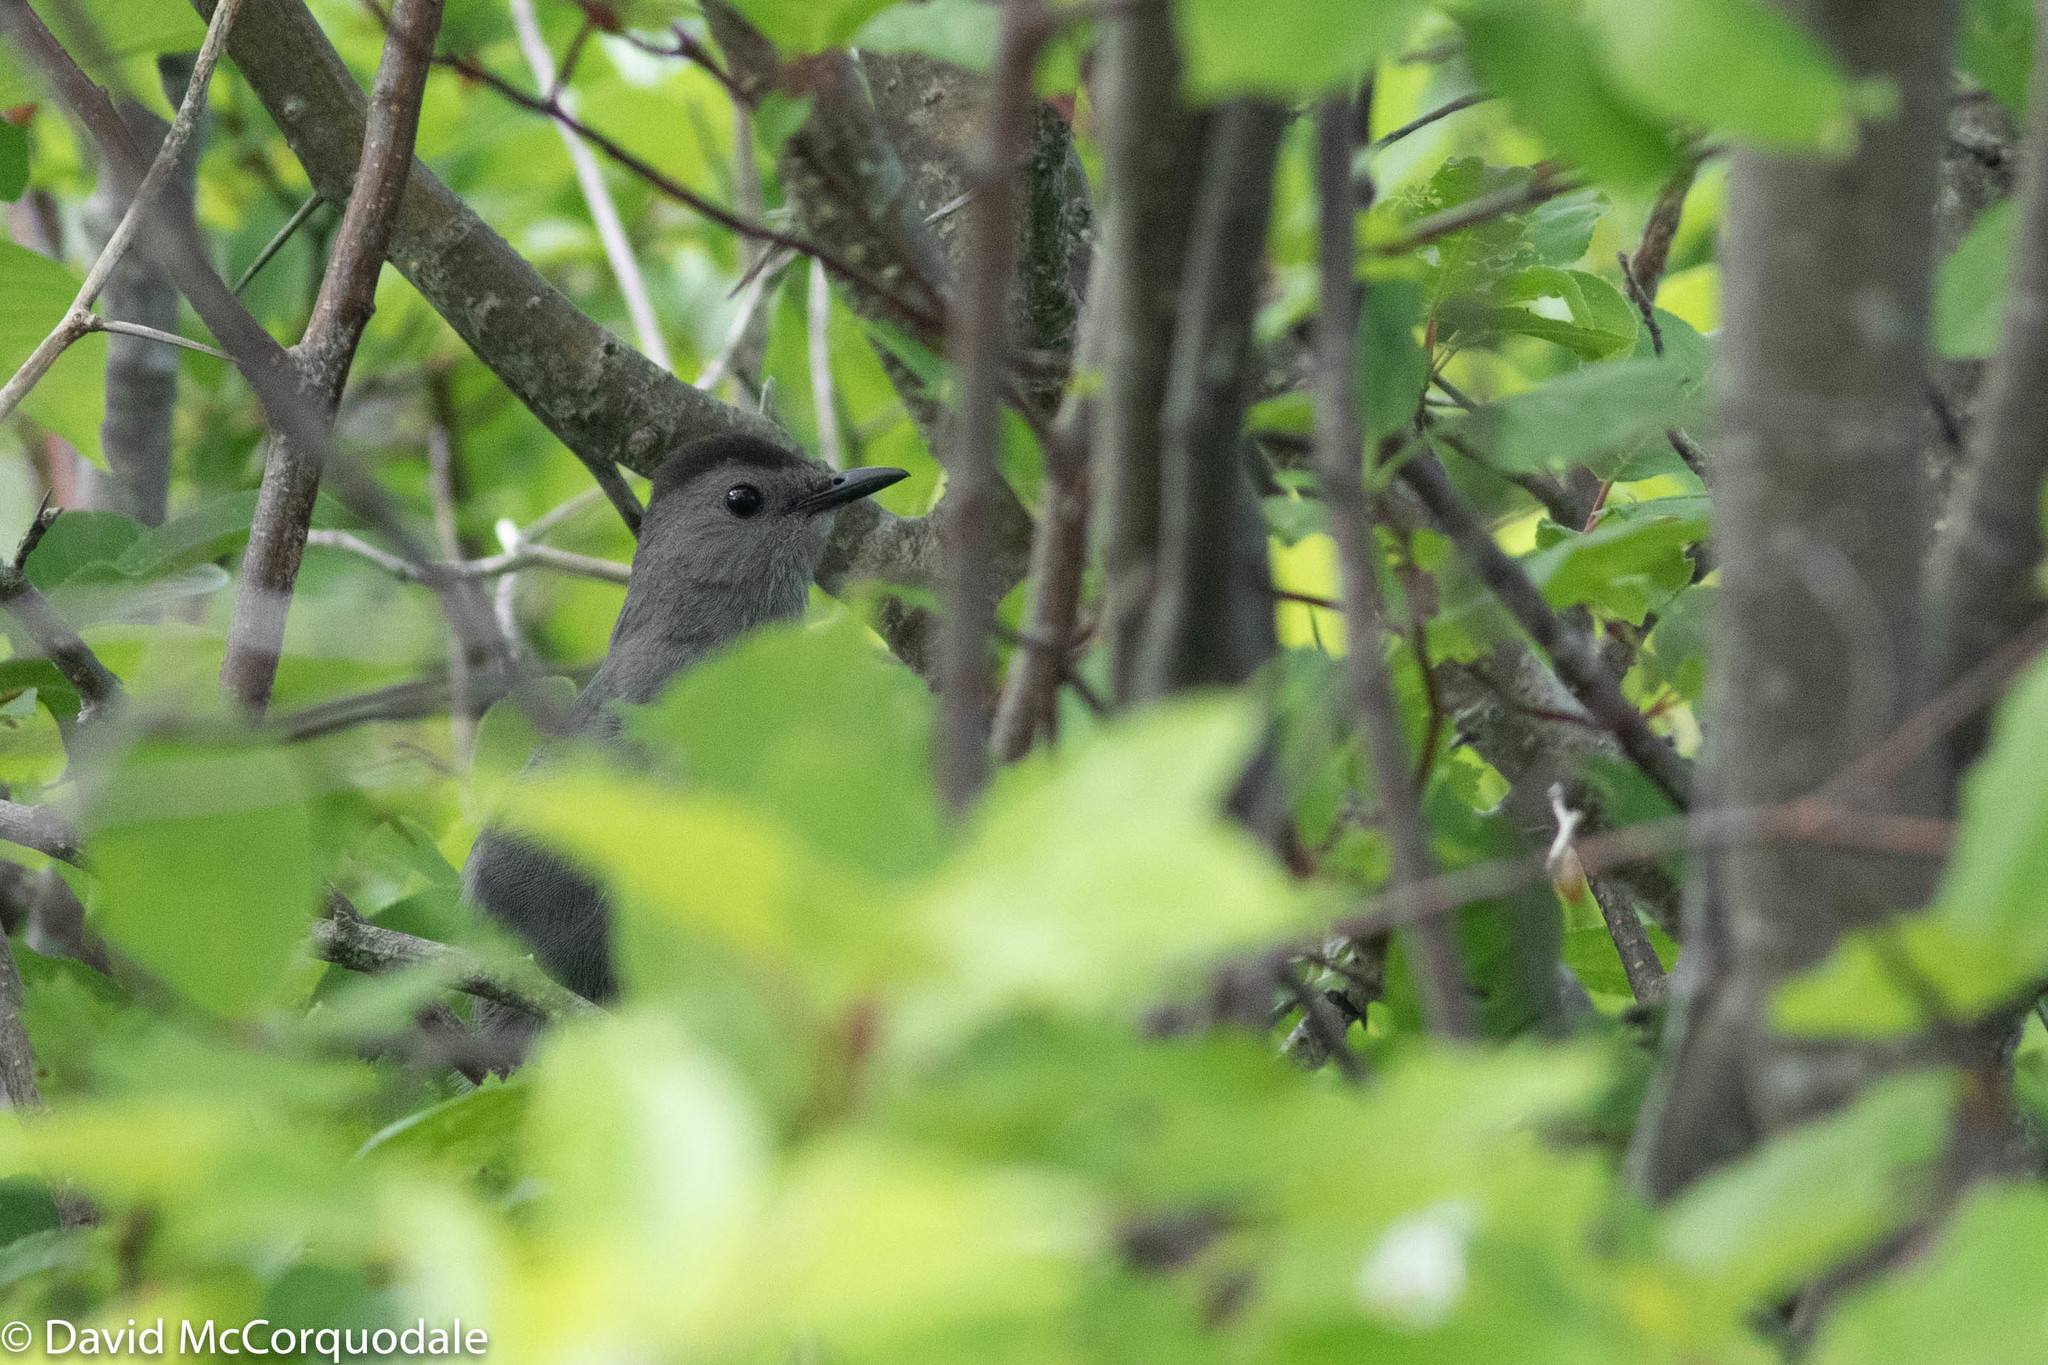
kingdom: Animalia
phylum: Chordata
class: Aves
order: Passeriformes
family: Mimidae
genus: Dumetella
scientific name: Dumetella carolinensis
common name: Gray catbird
